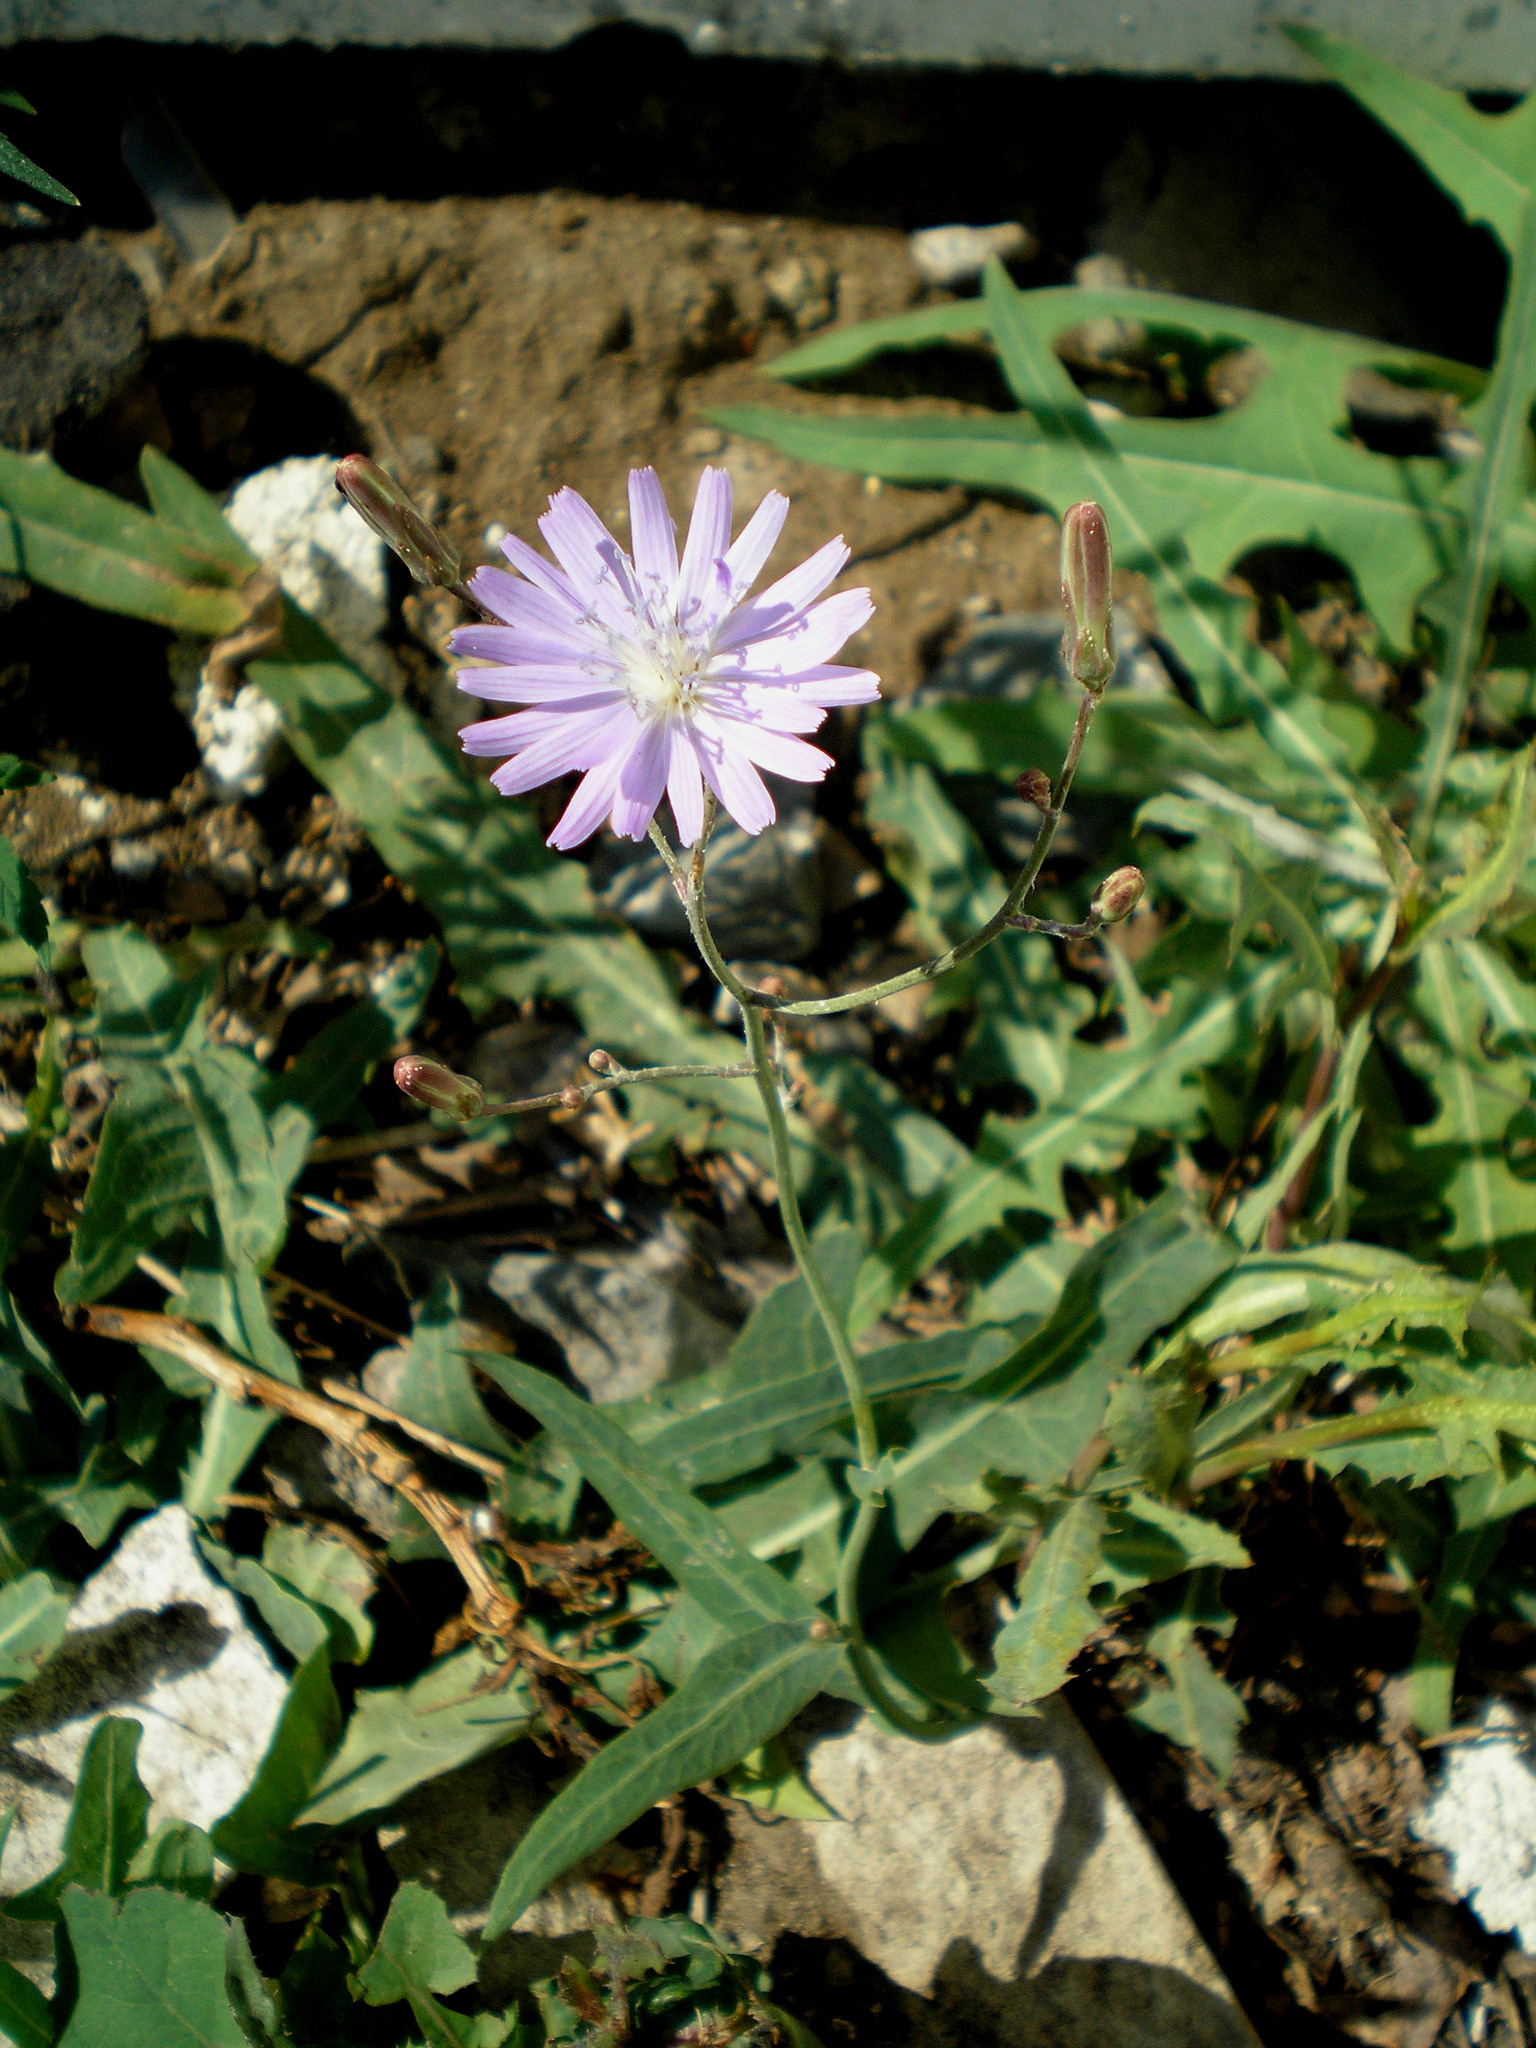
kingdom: Plantae
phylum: Tracheophyta
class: Magnoliopsida
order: Asterales
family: Asteraceae
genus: Lactuca
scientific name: Lactuca tatarica
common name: Blue lettuce
